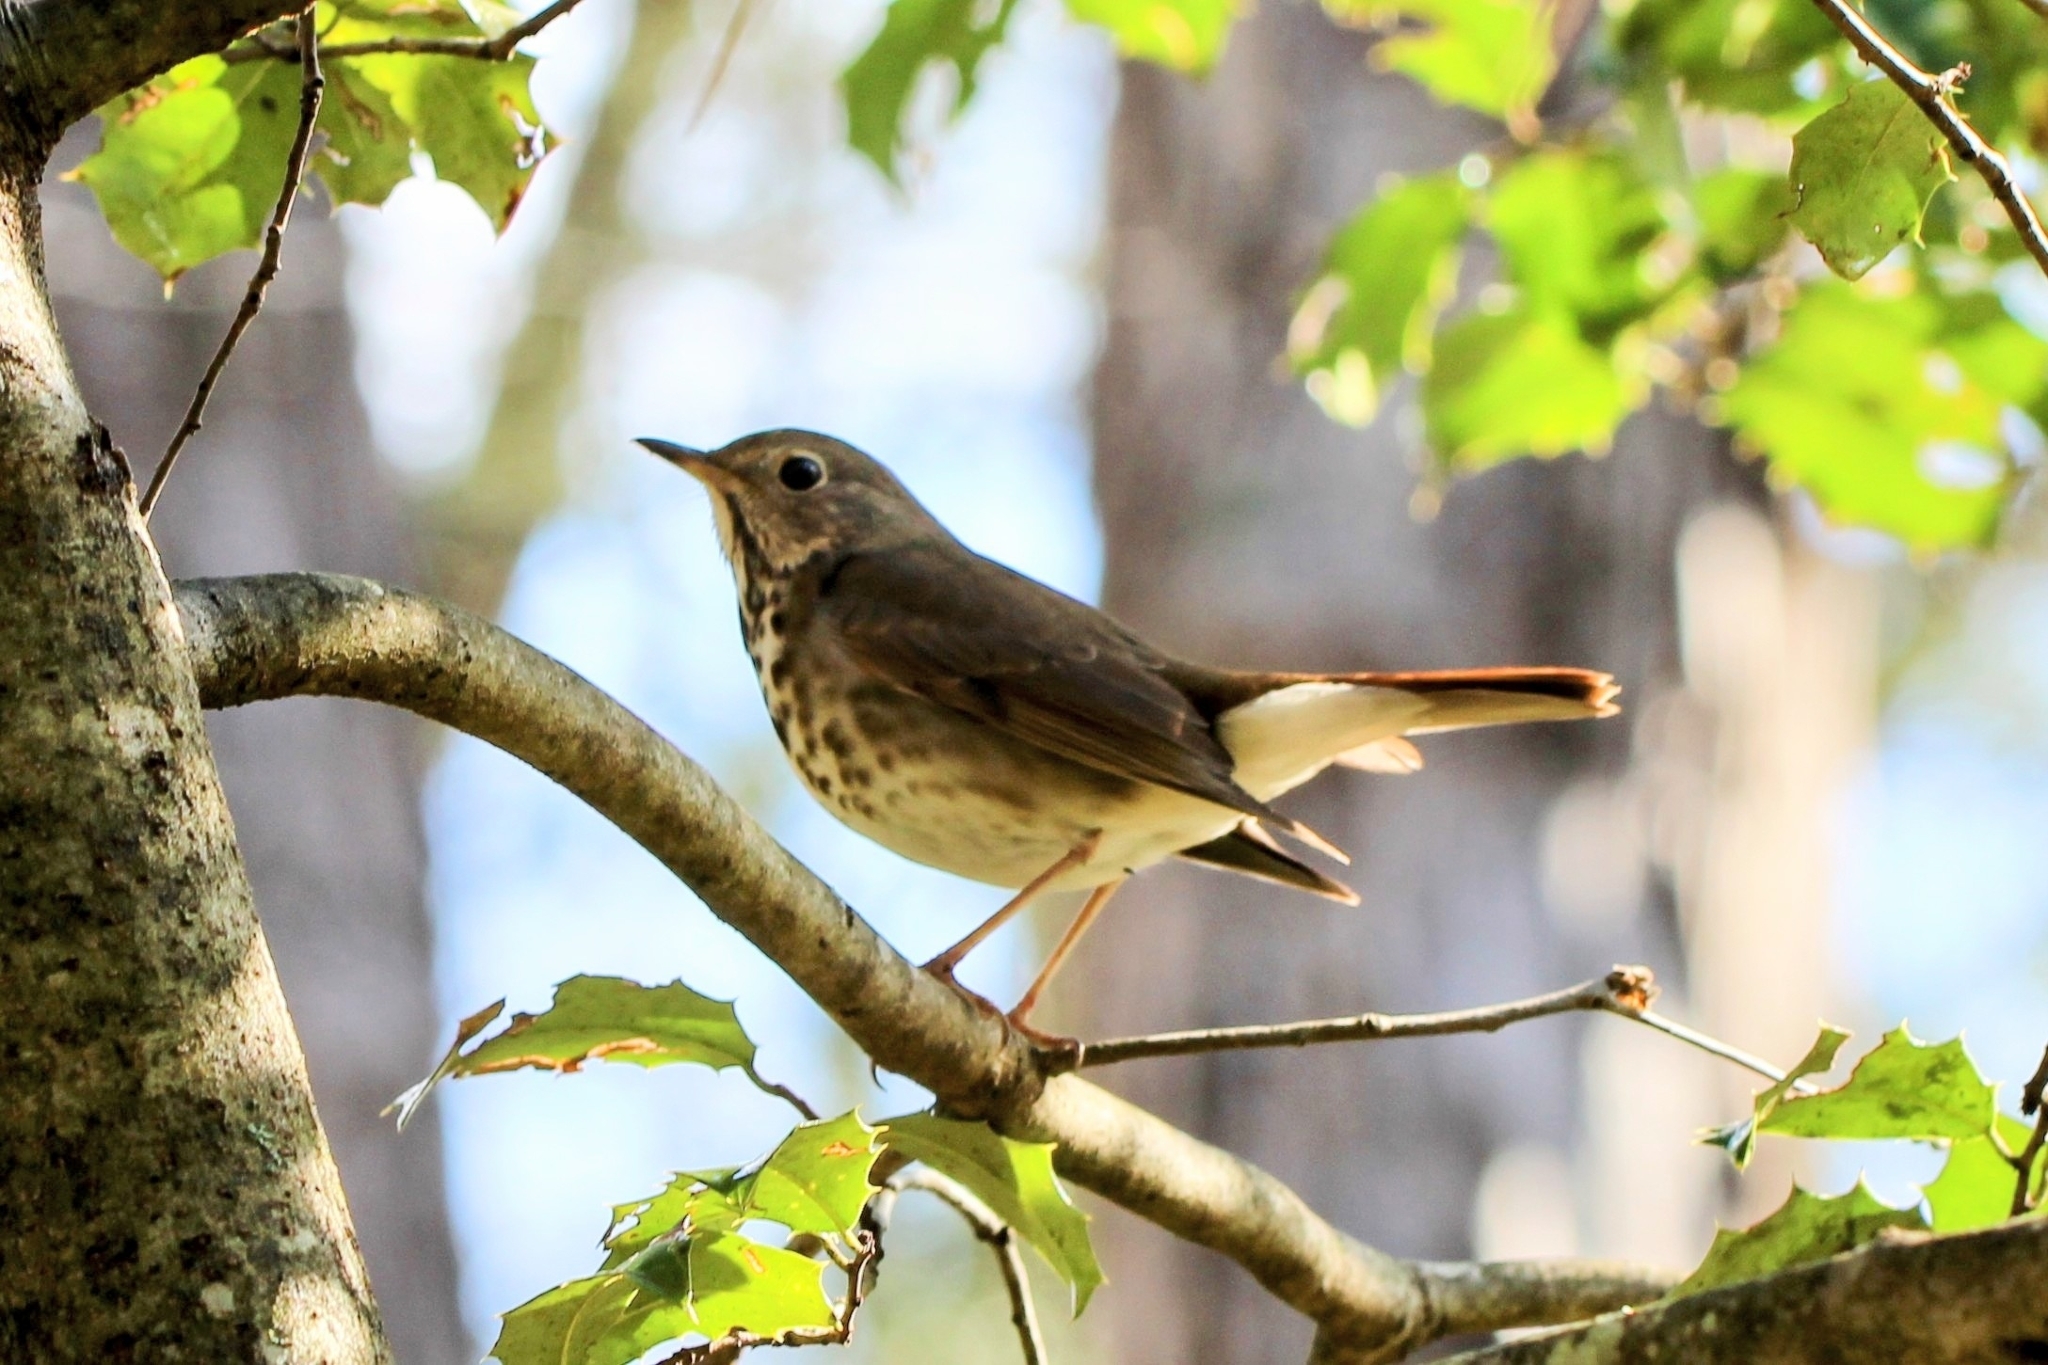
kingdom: Animalia
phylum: Chordata
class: Aves
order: Passeriformes
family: Turdidae
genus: Catharus
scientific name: Catharus guttatus
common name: Hermit thrush
